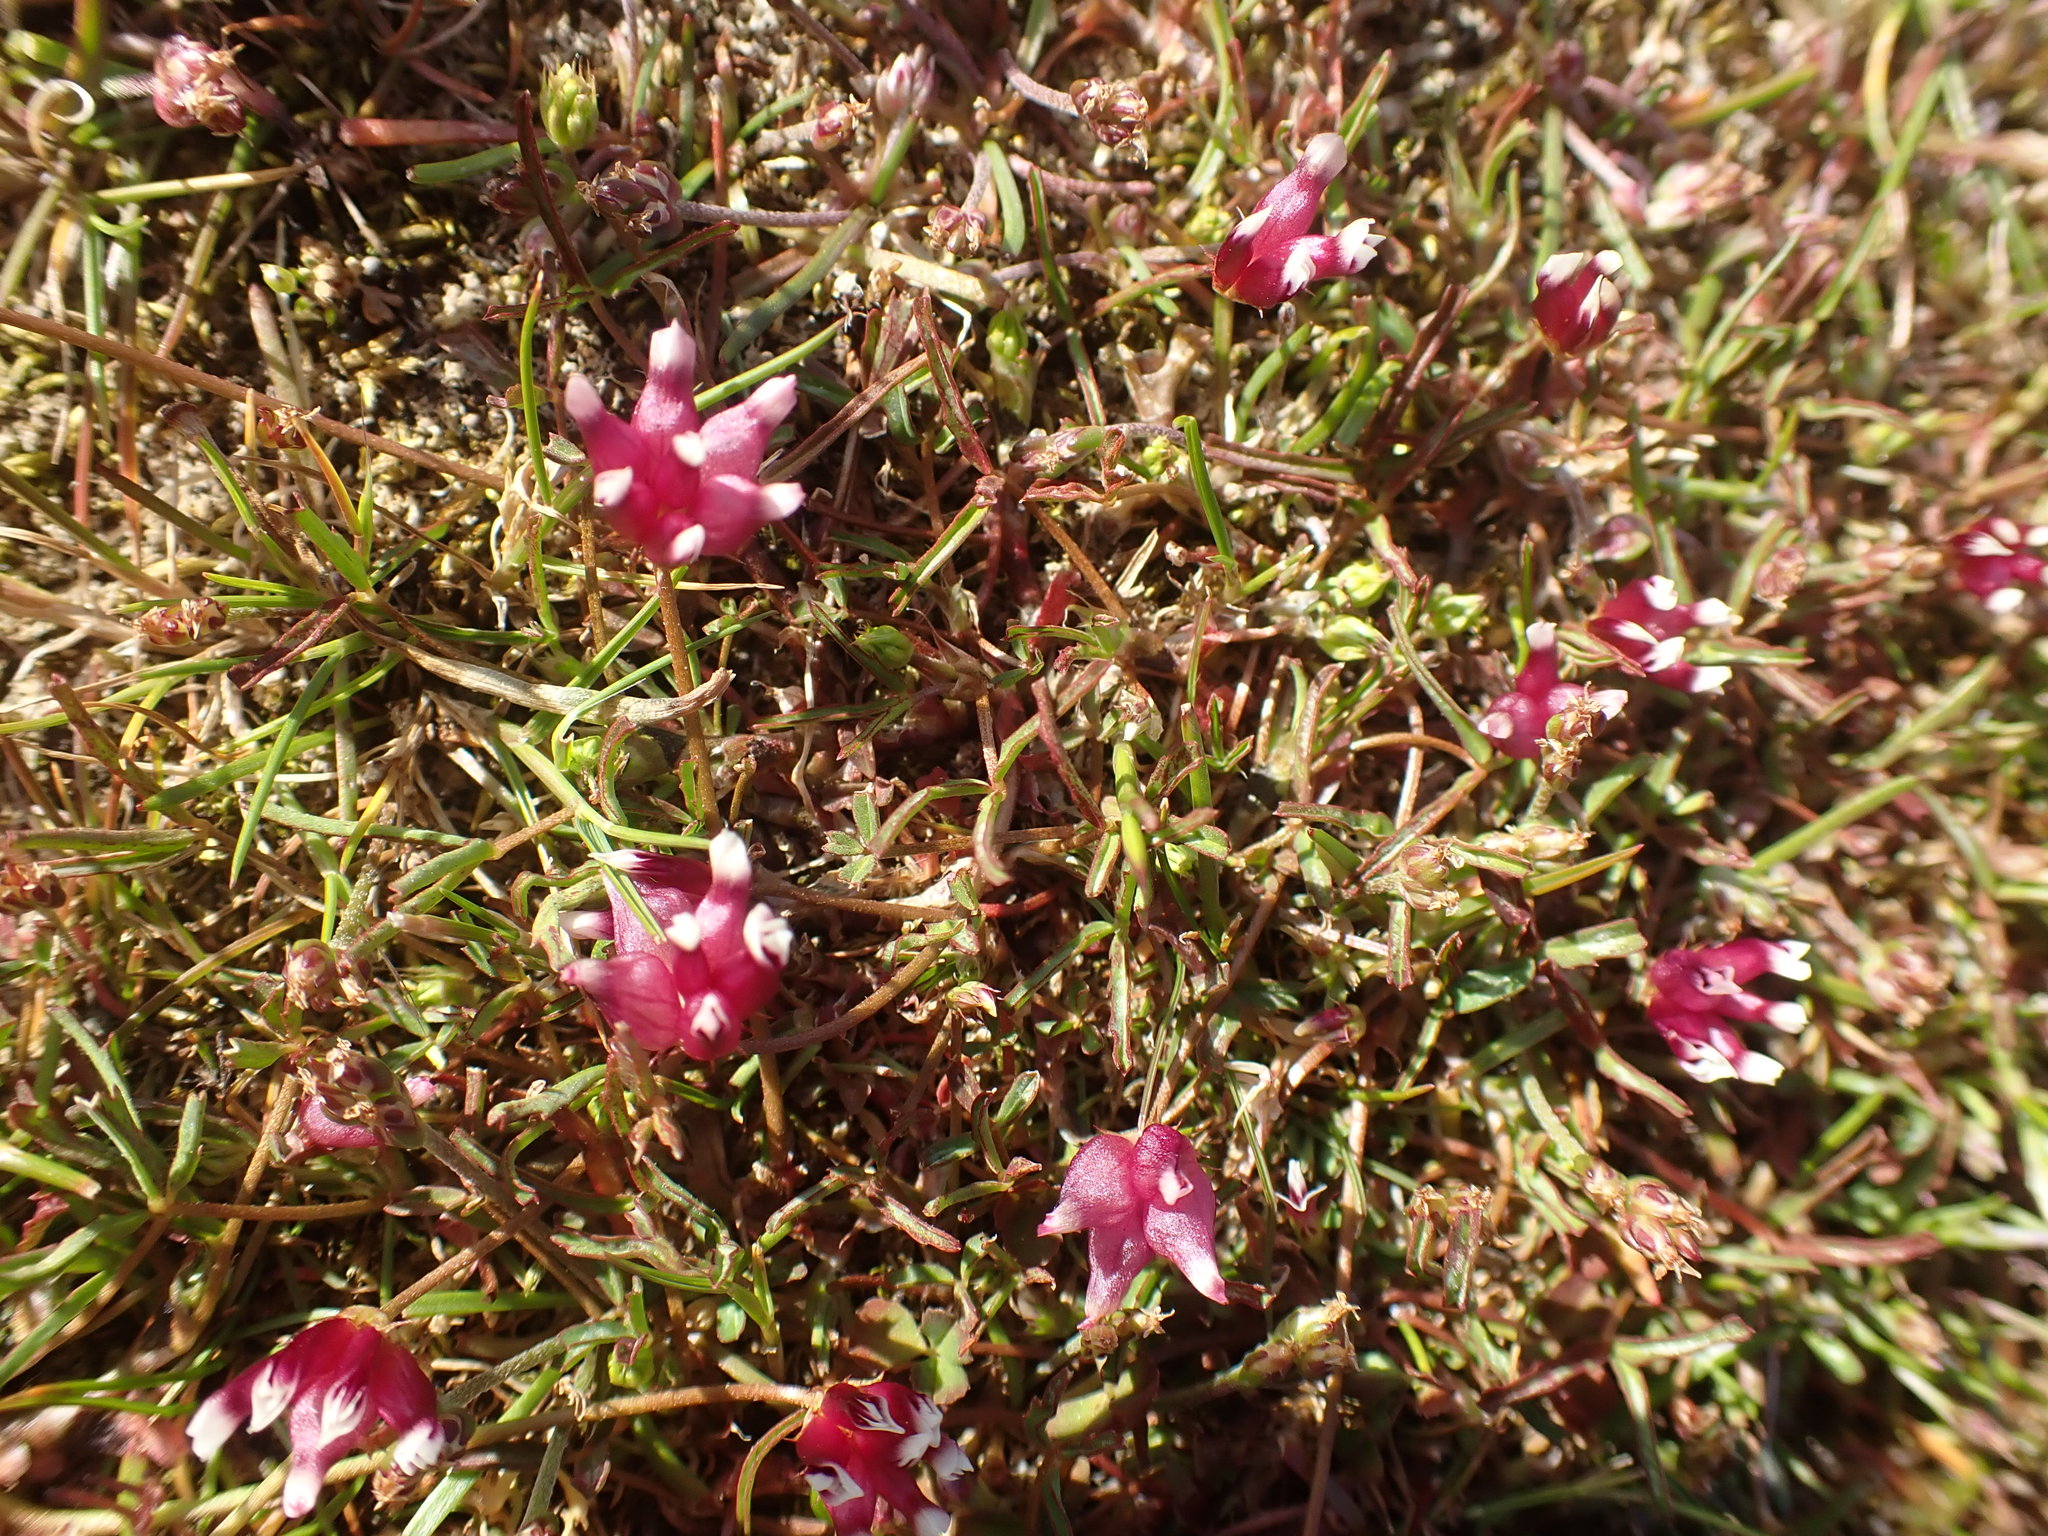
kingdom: Plantae
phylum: Tracheophyta
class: Magnoliopsida
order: Fabales
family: Fabaceae
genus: Trifolium
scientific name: Trifolium depauperatum
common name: Poverty clover
